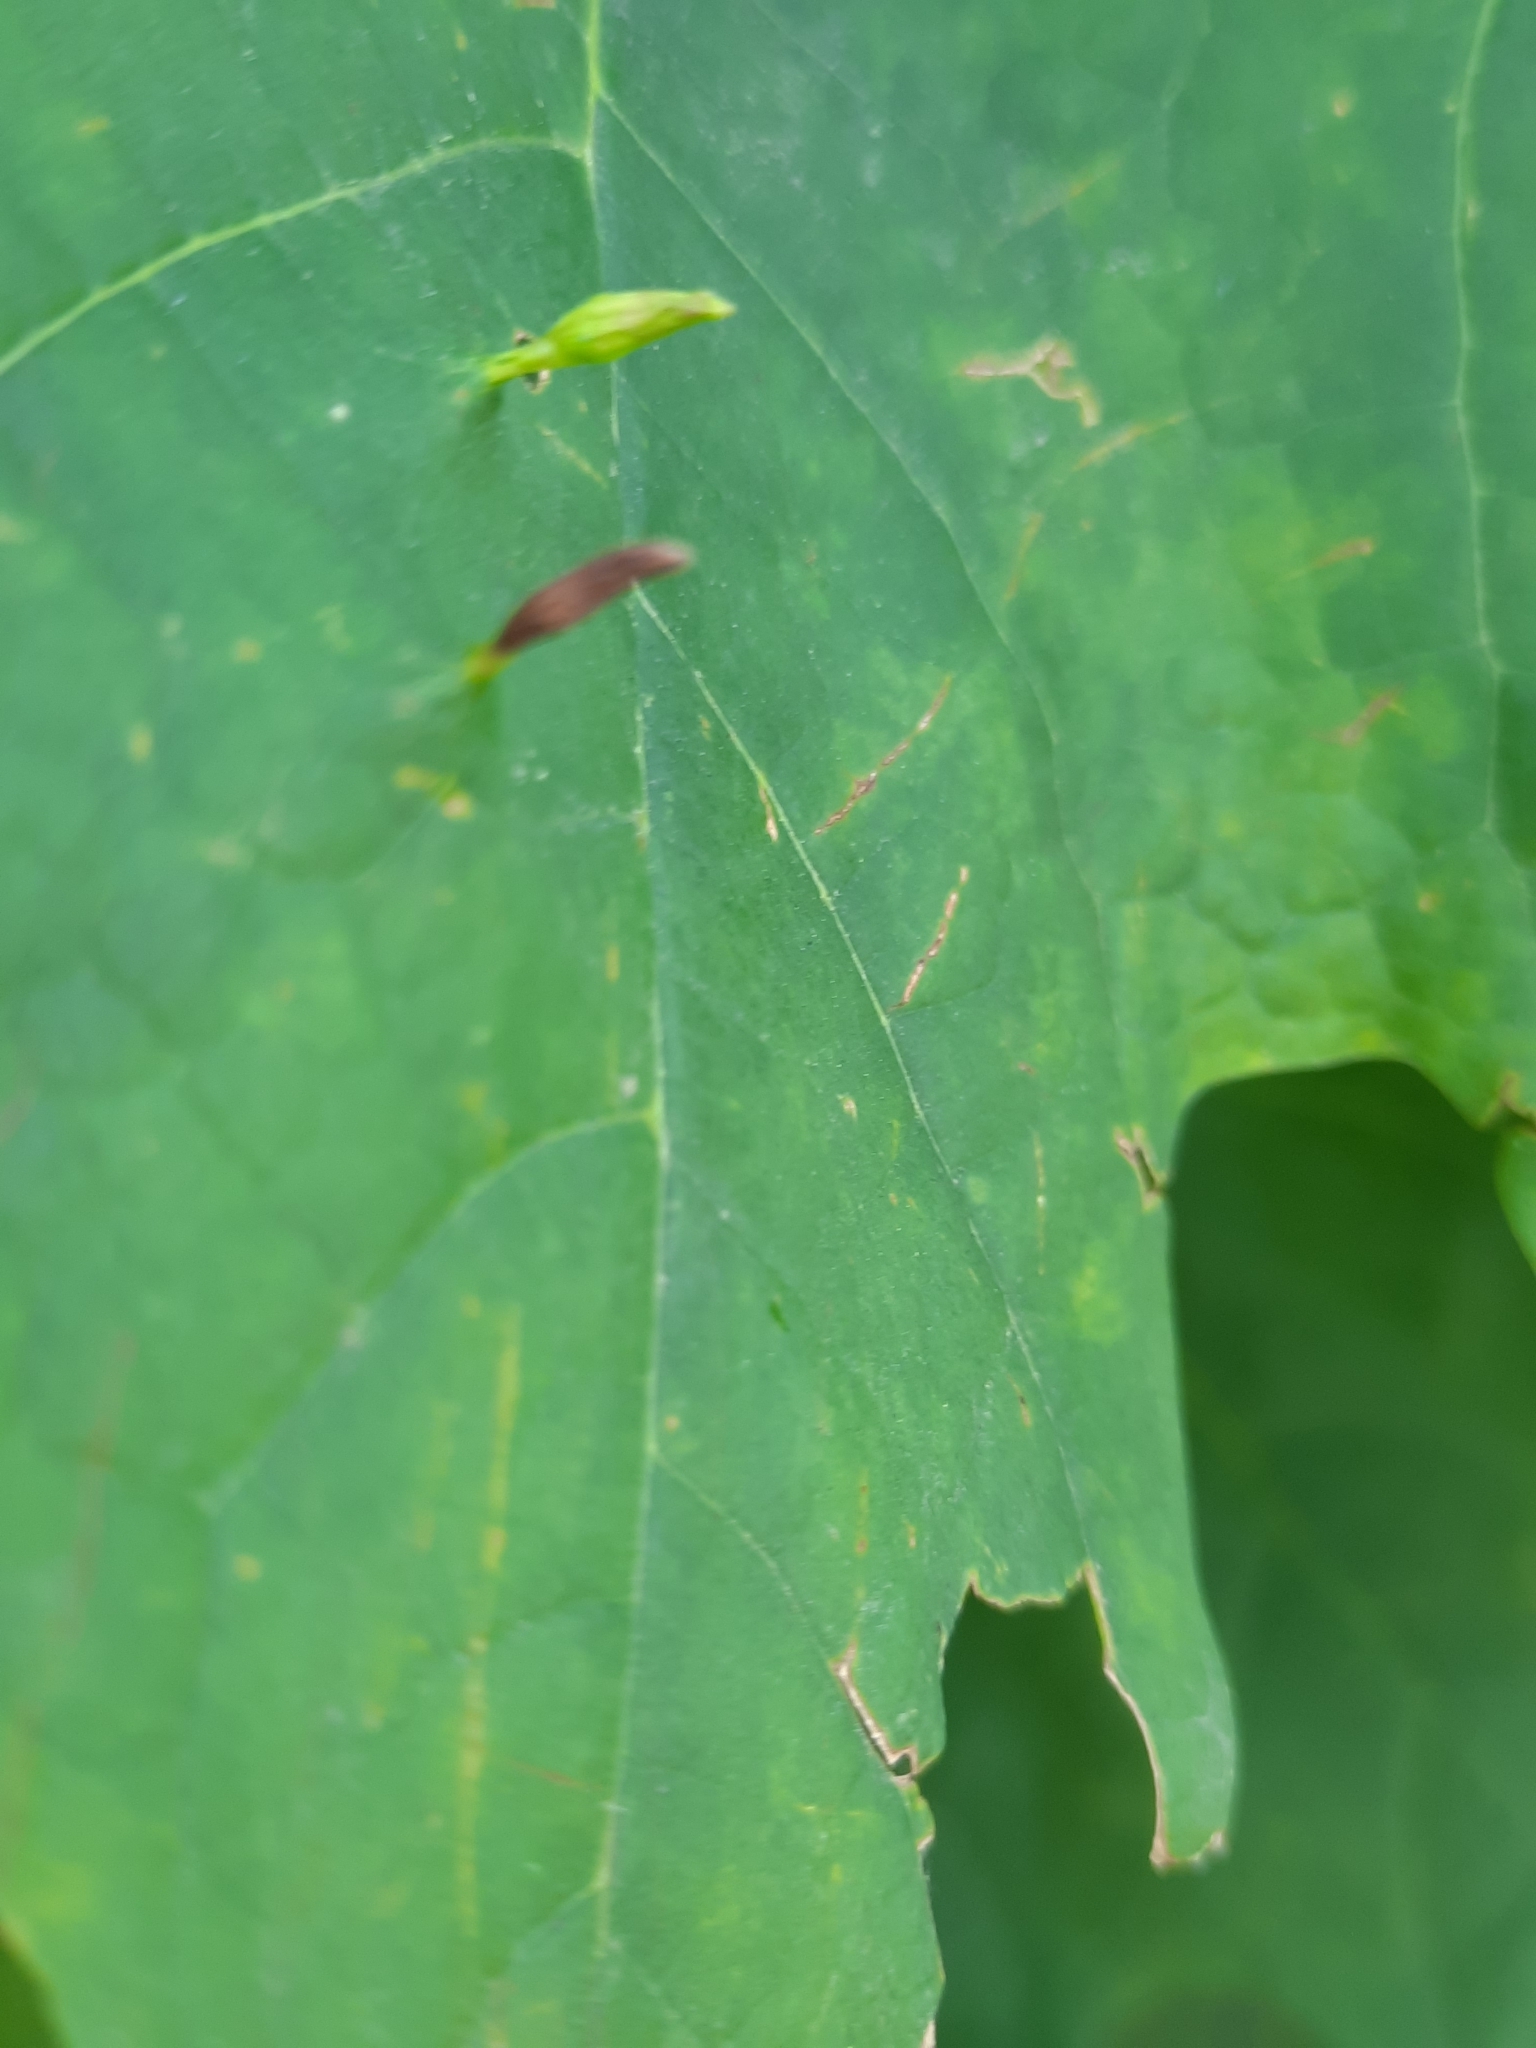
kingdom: Animalia
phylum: Arthropoda
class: Arachnida
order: Trombidiformes
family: Eriophyidae
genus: Vasates
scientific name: Vasates aceriscrumena
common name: Maple spindle gall mite
